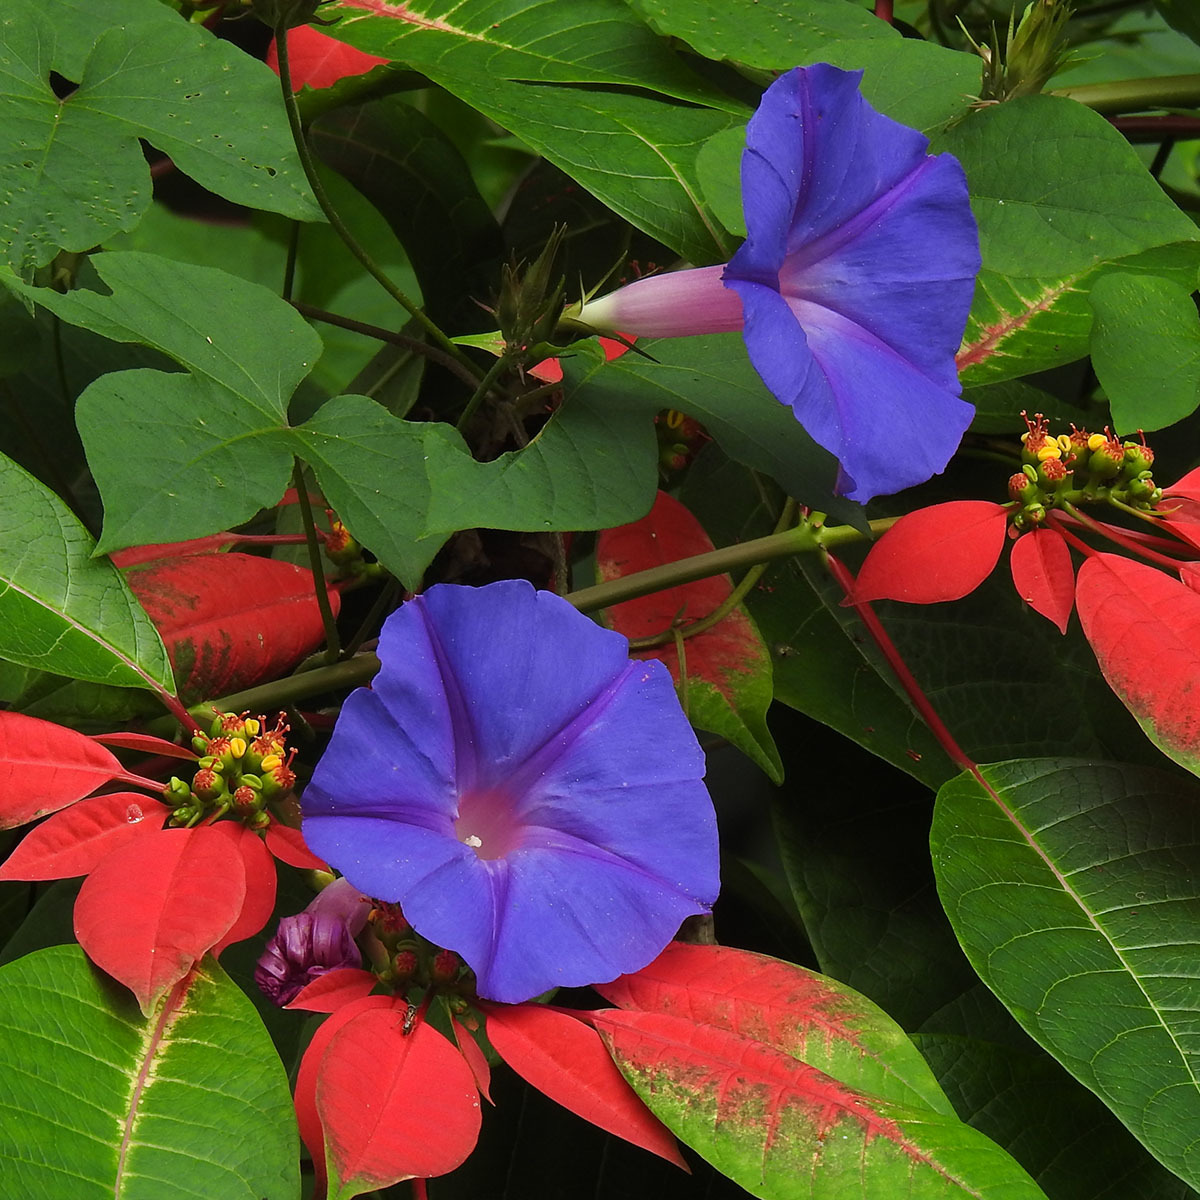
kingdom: Plantae
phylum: Tracheophyta
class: Magnoliopsida
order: Solanales
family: Convolvulaceae
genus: Ipomoea
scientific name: Ipomoea indica
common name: Blue dawnflower
